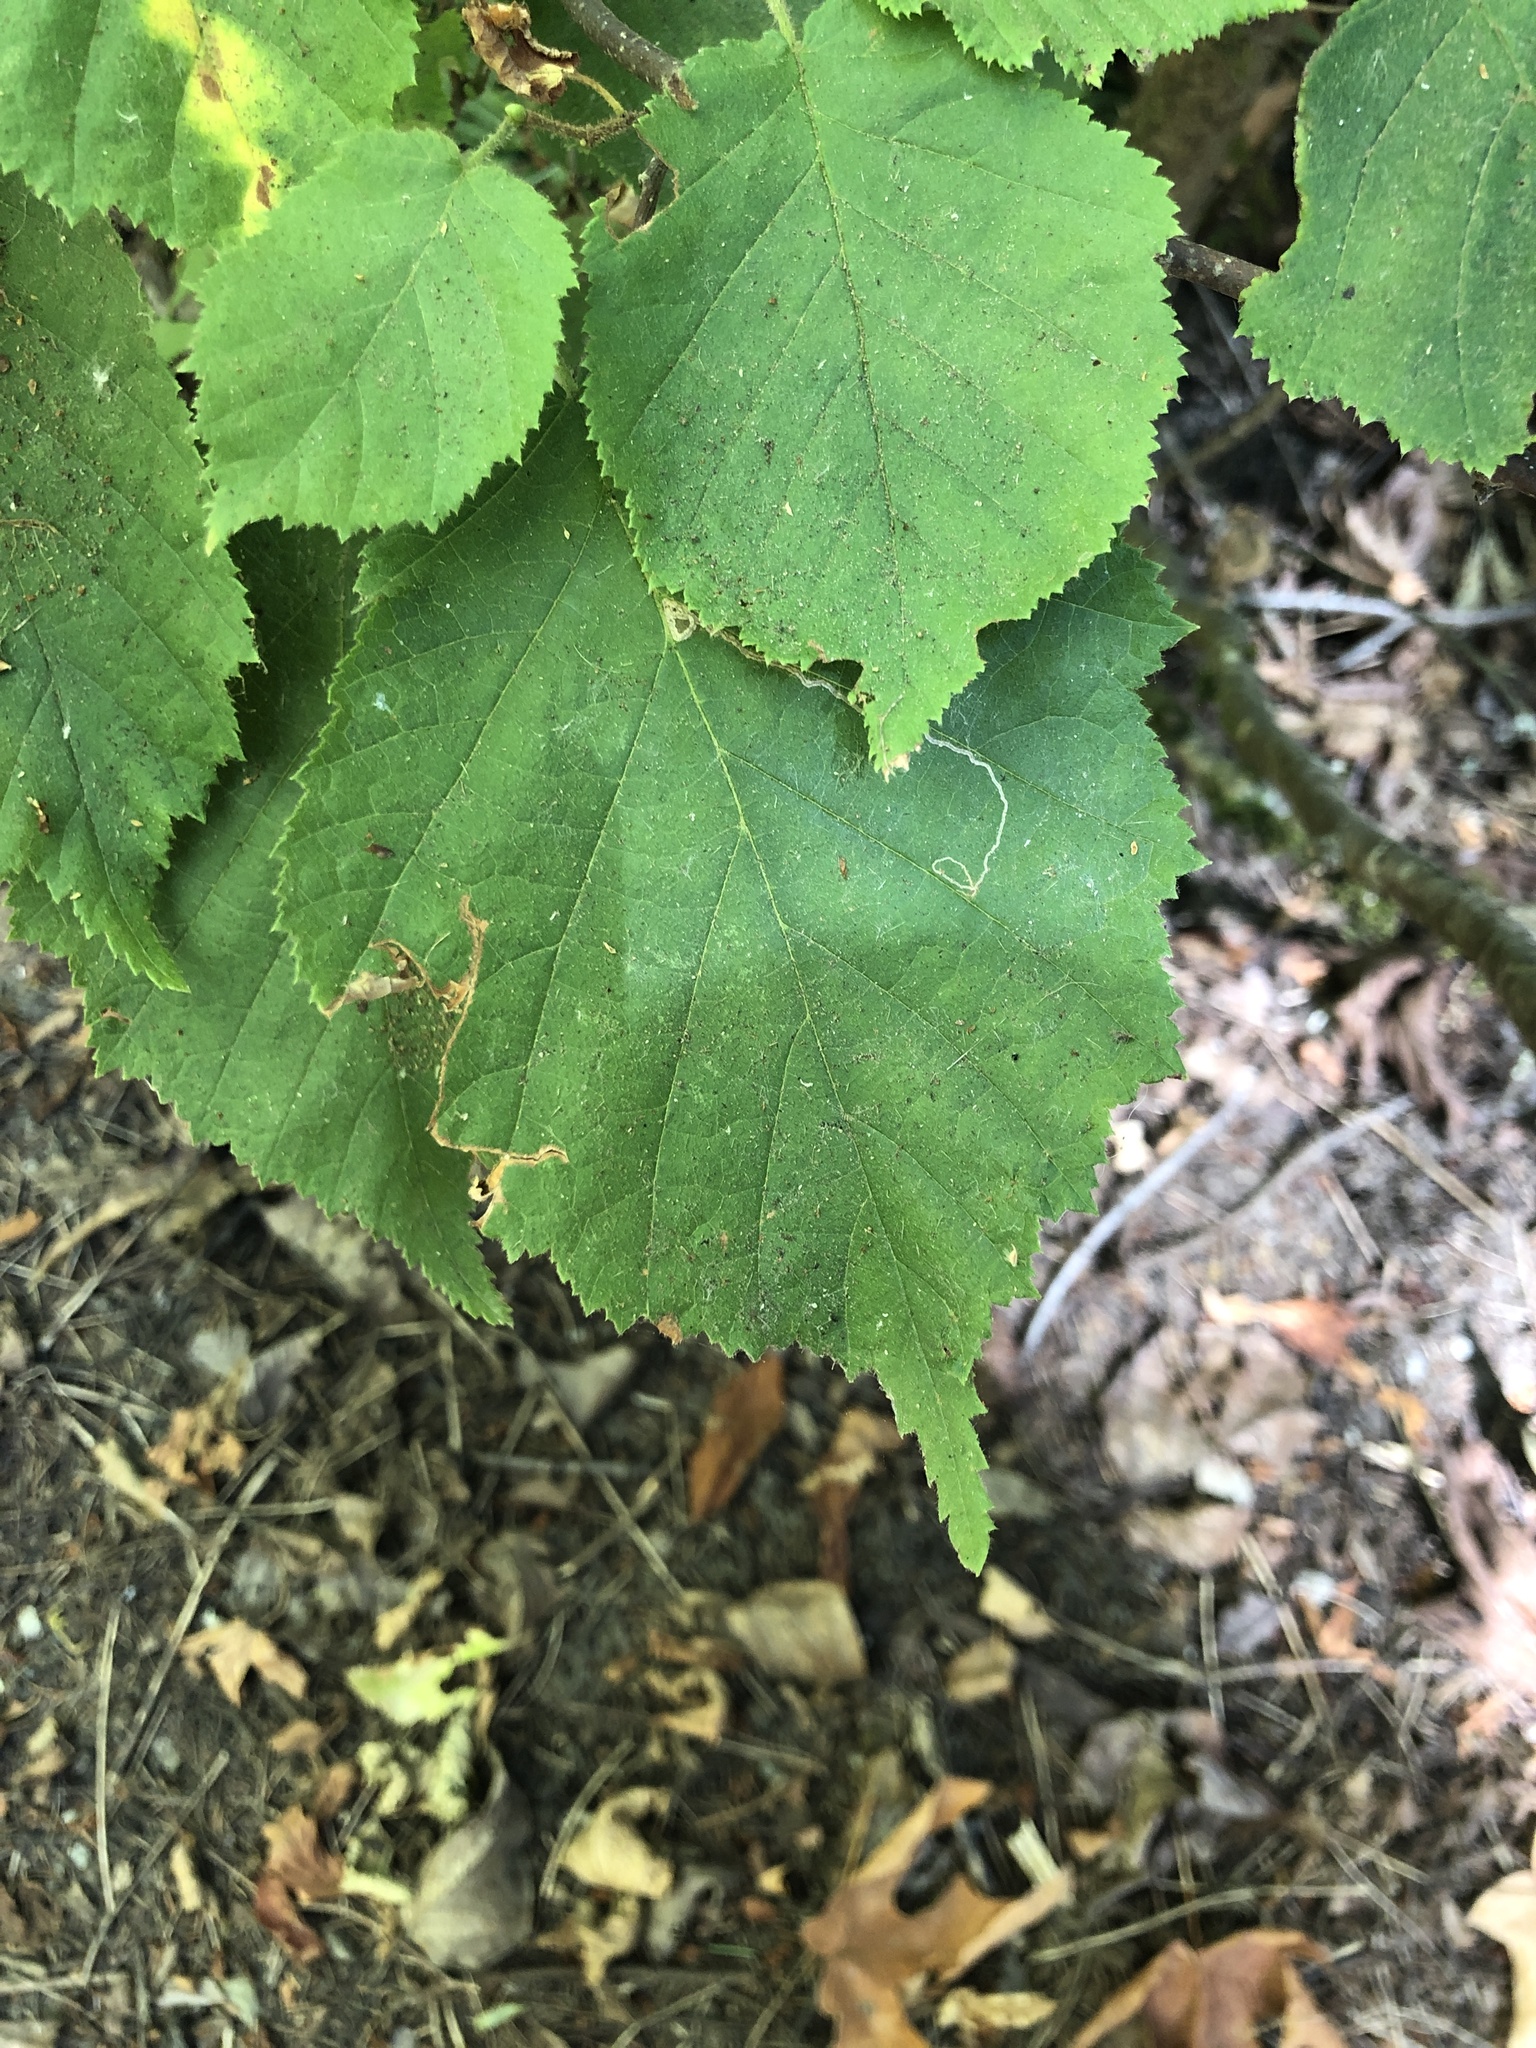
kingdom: Animalia
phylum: Arthropoda
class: Insecta
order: Lepidoptera
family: Nepticulidae
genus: Stigmella
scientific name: Stigmella microtheriella
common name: Nut-tree pigmy
